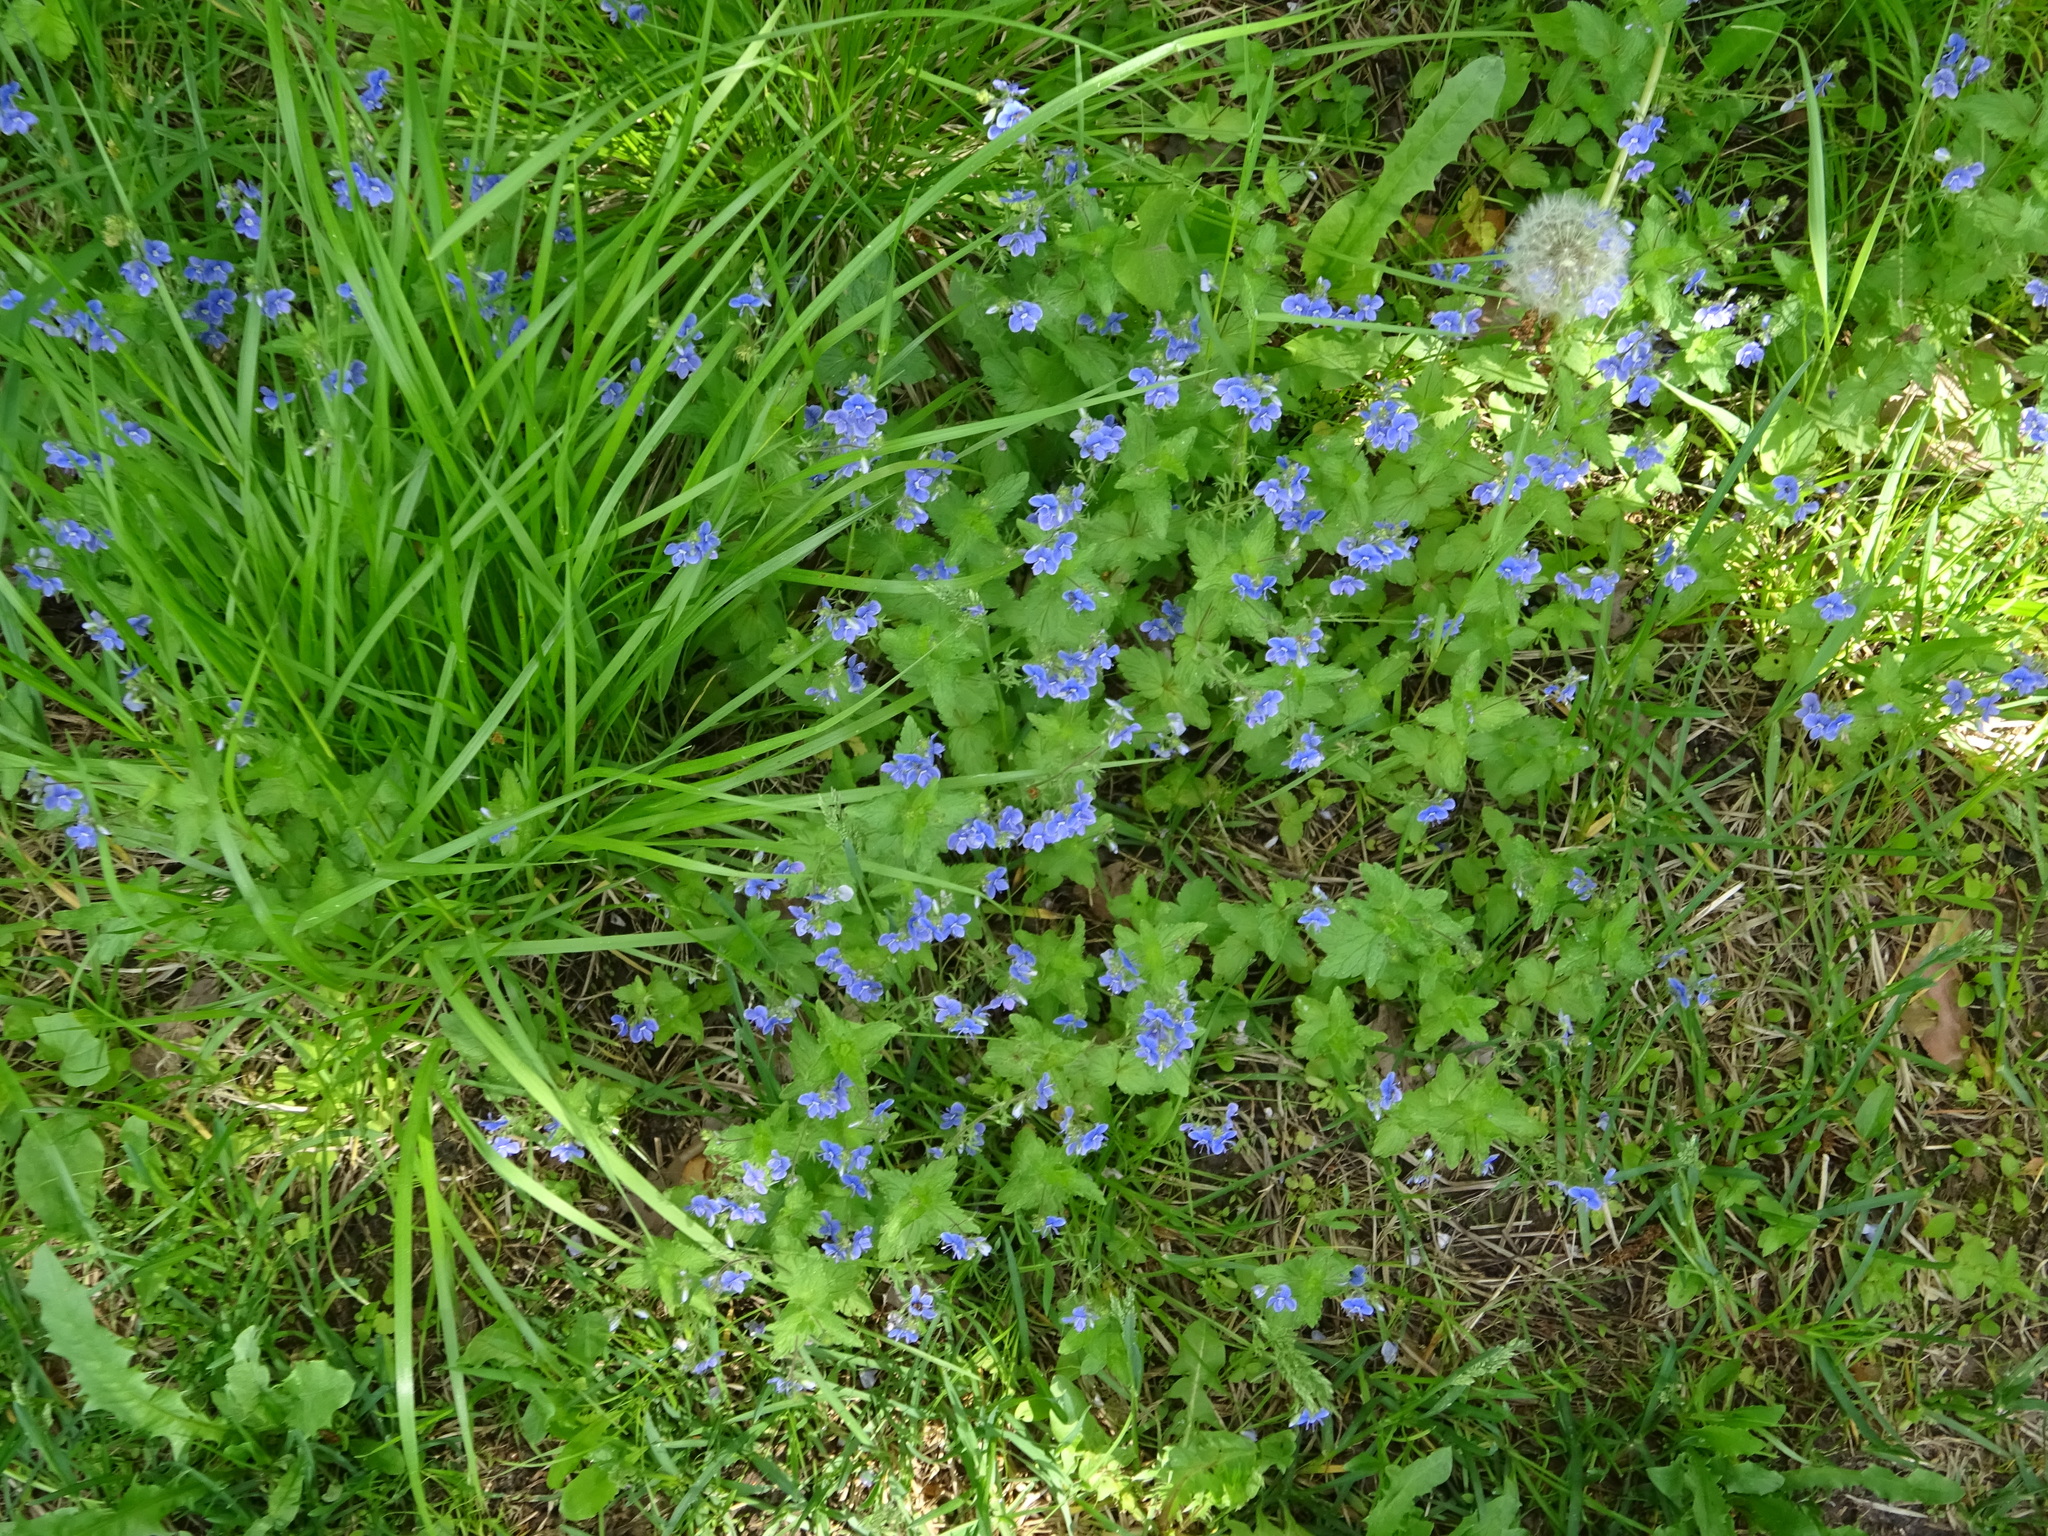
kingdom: Plantae
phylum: Tracheophyta
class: Magnoliopsida
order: Malpighiales
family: Violaceae
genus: Viola
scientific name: Viola
